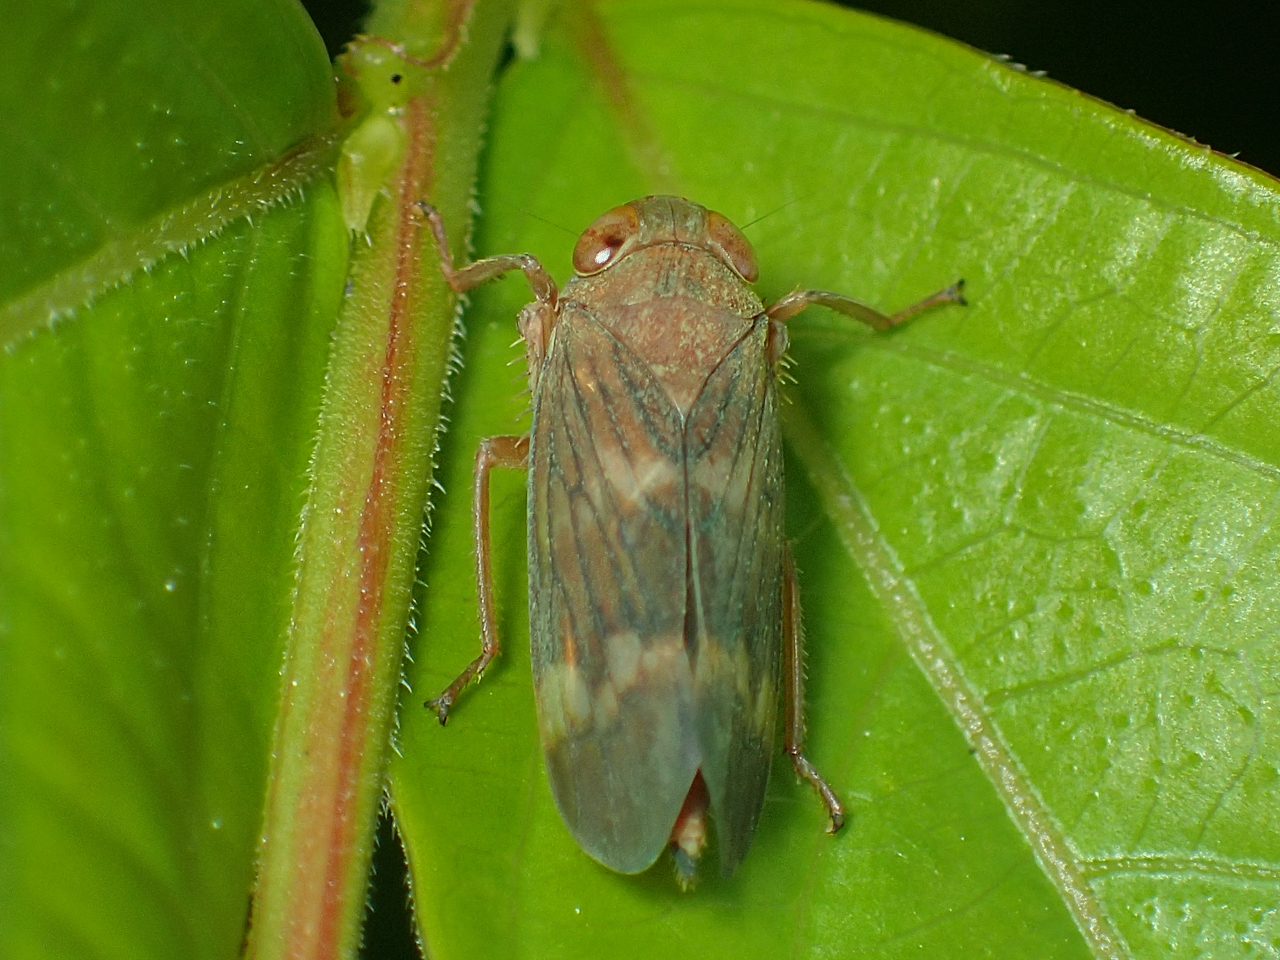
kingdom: Animalia
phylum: Arthropoda
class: Insecta
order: Hemiptera
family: Cicadellidae
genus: Jikradia
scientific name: Jikradia olitoria
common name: Coppery leafhopper
